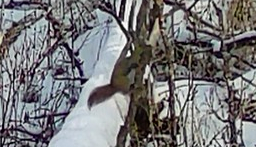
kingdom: Animalia
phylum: Chordata
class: Mammalia
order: Rodentia
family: Sciuridae
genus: Tamiasciurus
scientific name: Tamiasciurus hudsonicus
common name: Red squirrel
